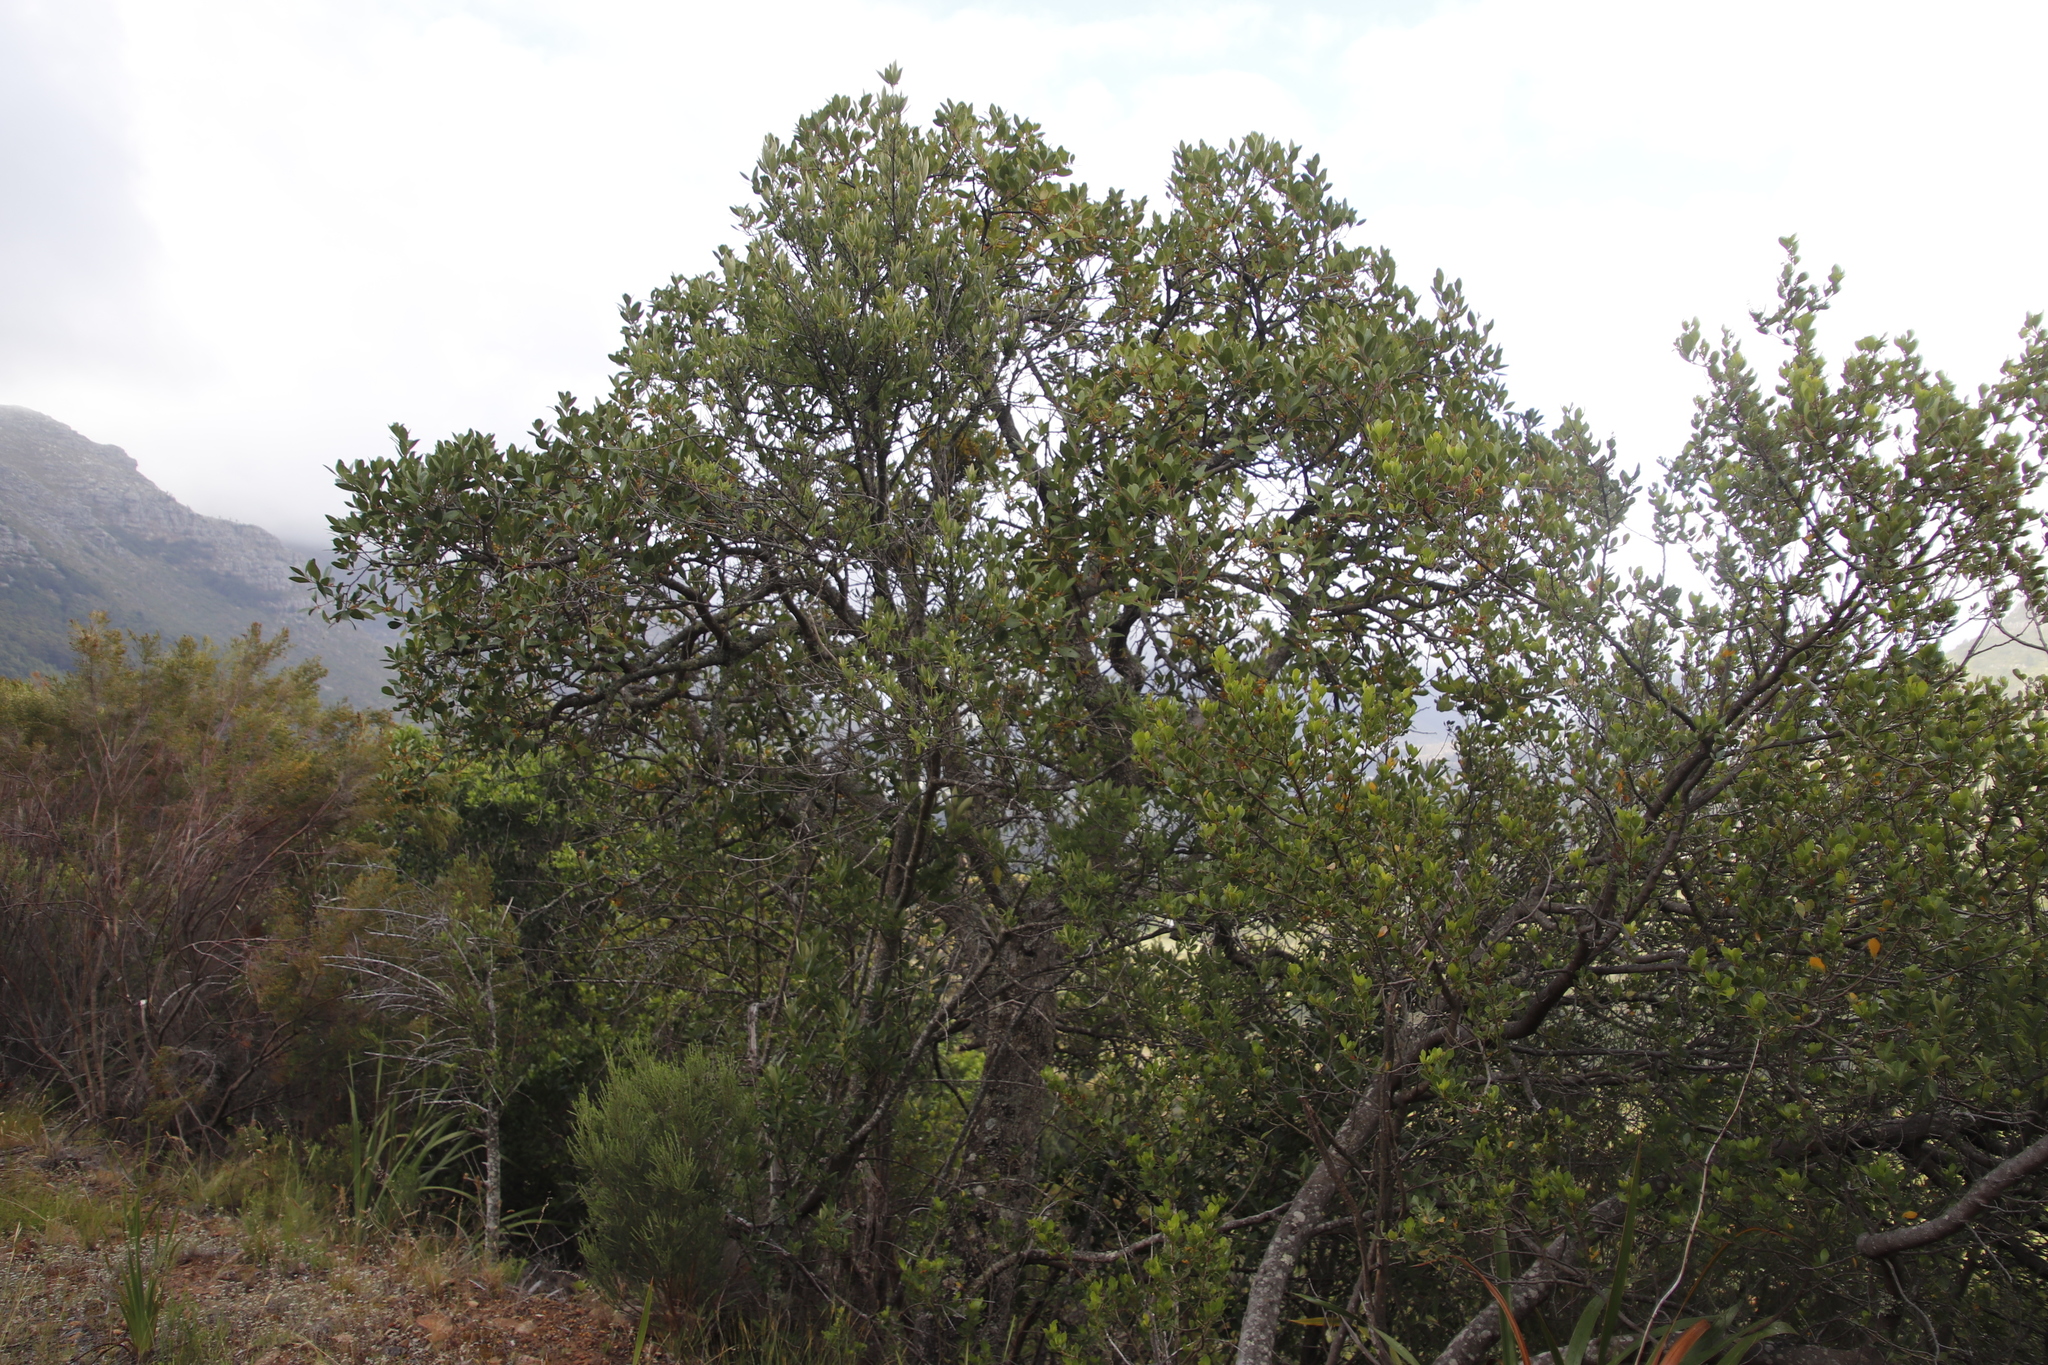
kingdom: Plantae
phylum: Tracheophyta
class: Magnoliopsida
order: Celastrales
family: Celastraceae
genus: Gymnosporia
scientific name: Gymnosporia laurina
